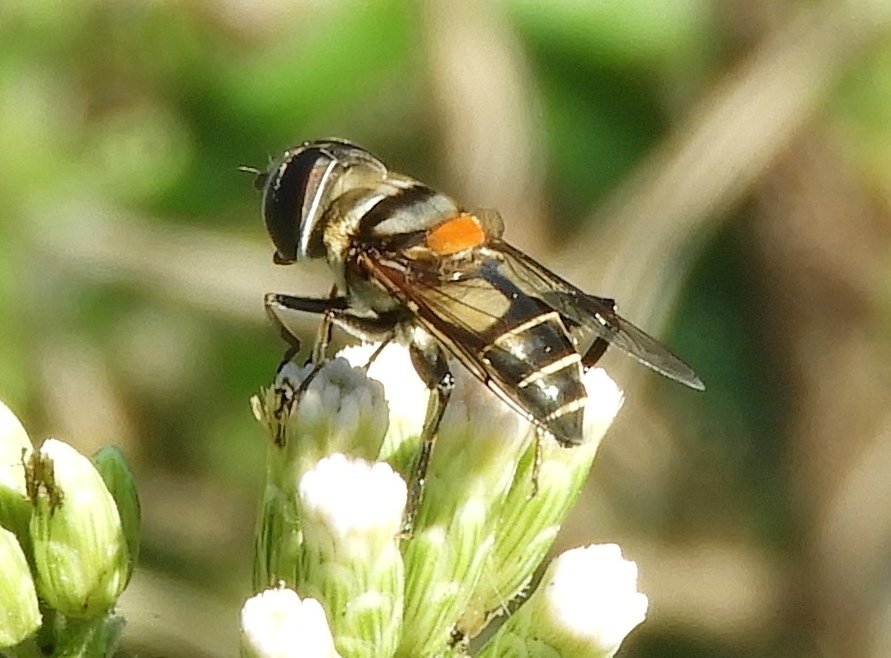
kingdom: Animalia
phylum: Arthropoda
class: Insecta
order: Diptera
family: Syrphidae
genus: Palpada
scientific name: Palpada
